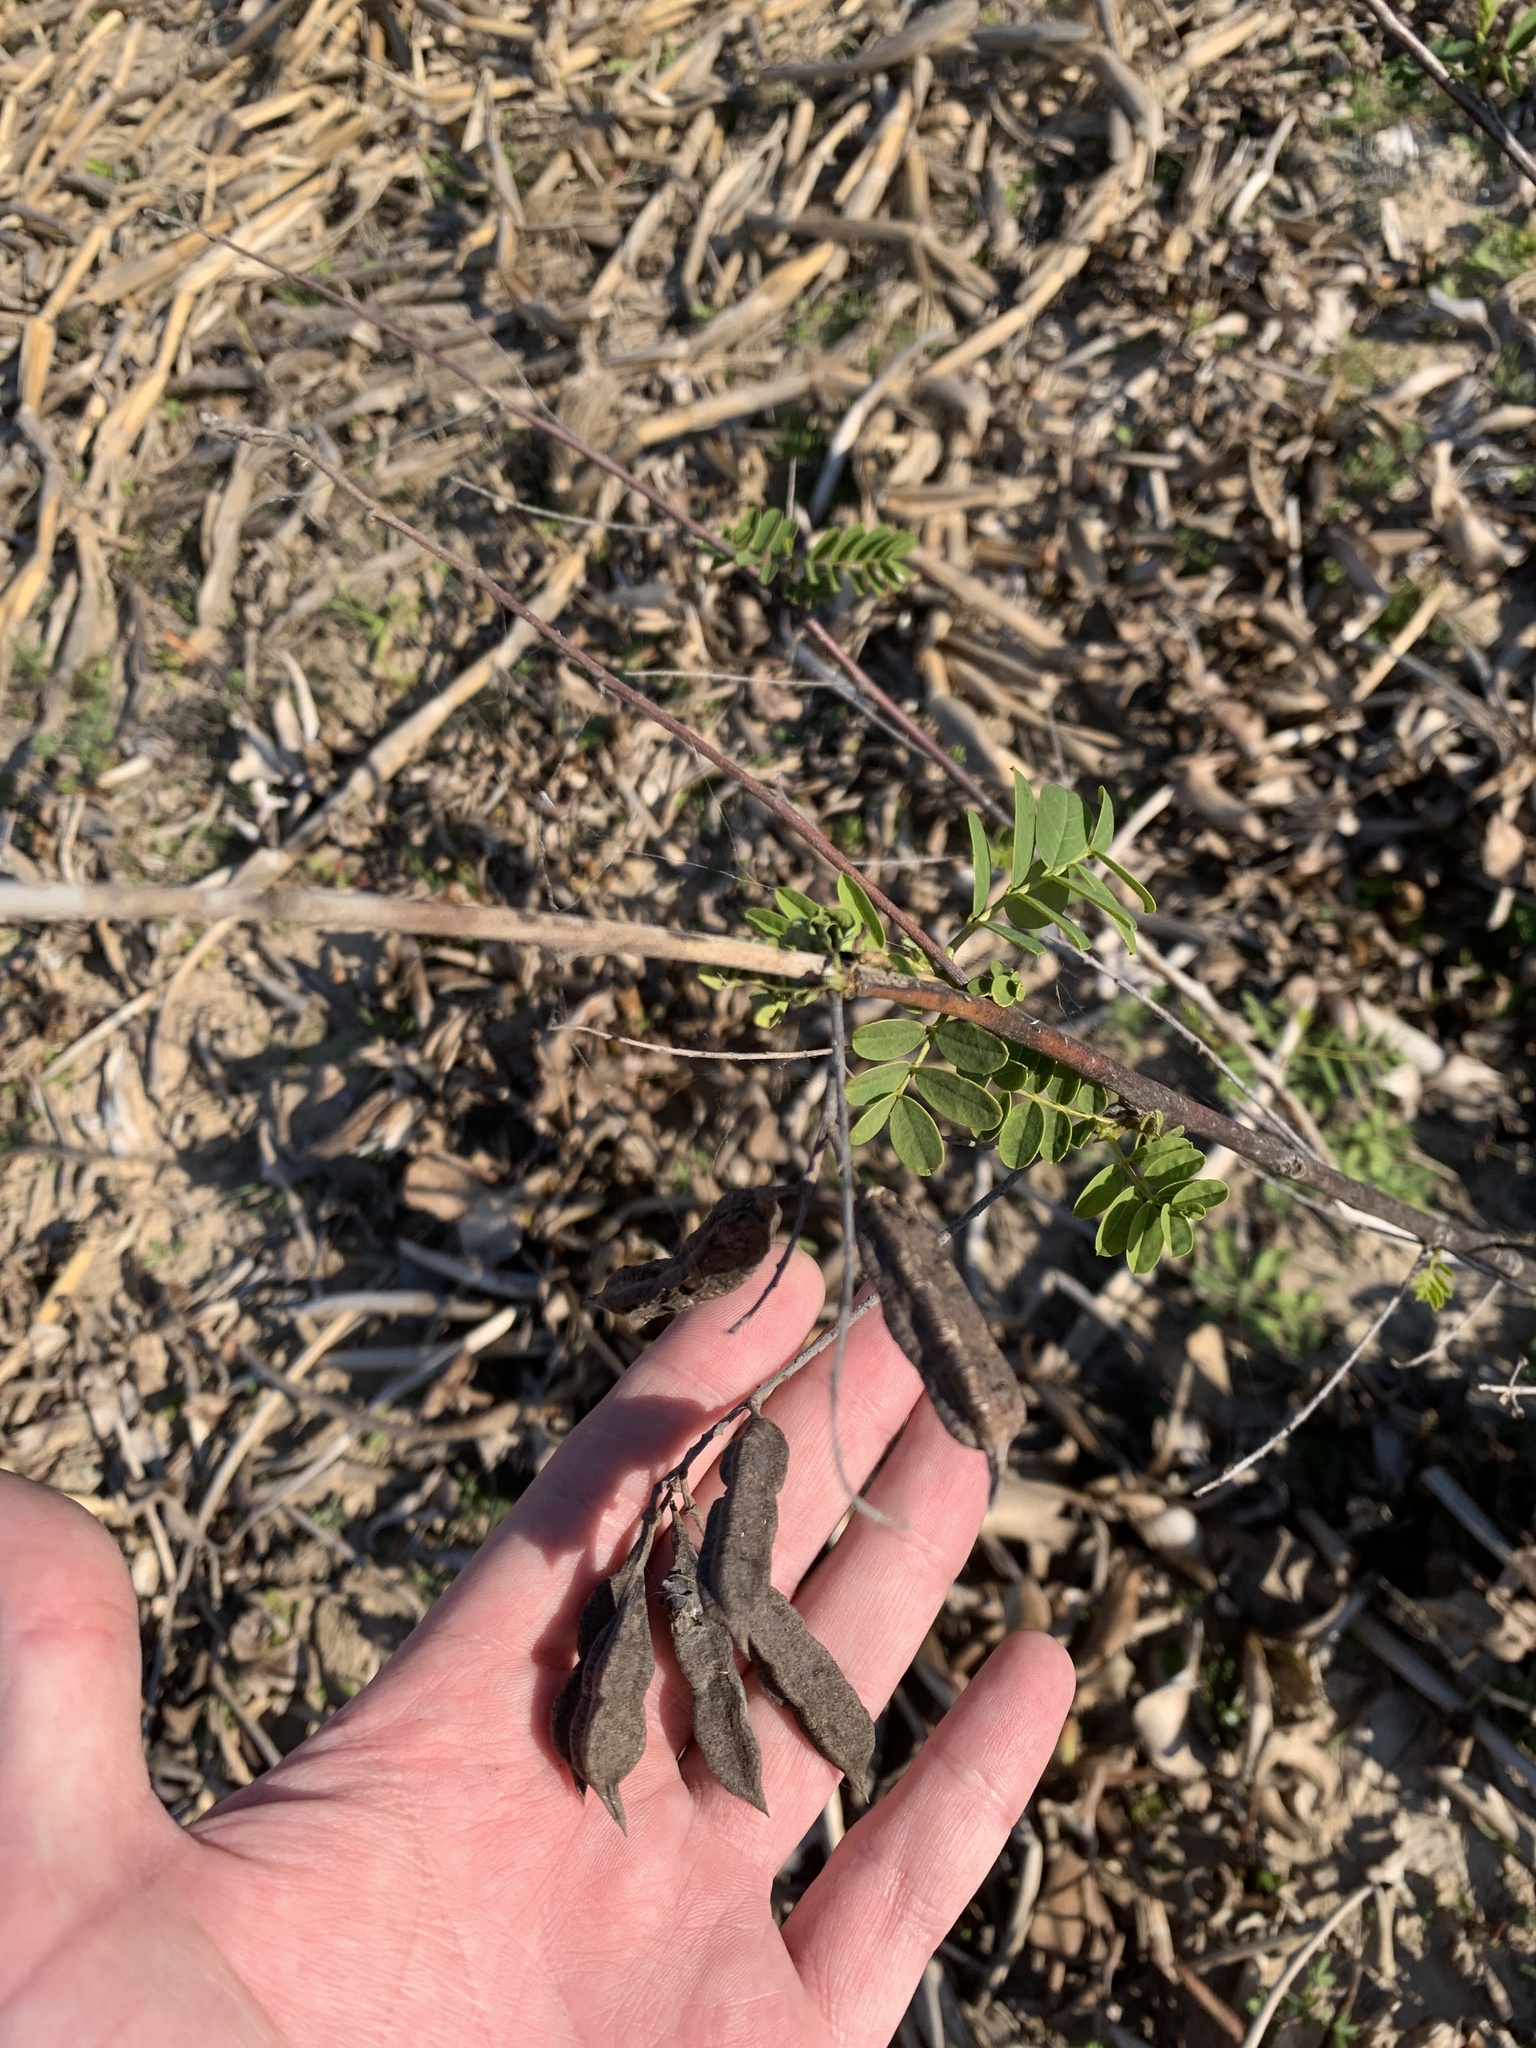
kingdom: Plantae
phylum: Tracheophyta
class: Magnoliopsida
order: Fabales
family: Fabaceae
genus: Sesbania
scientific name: Sesbania virgata
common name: Wand riverhemp
